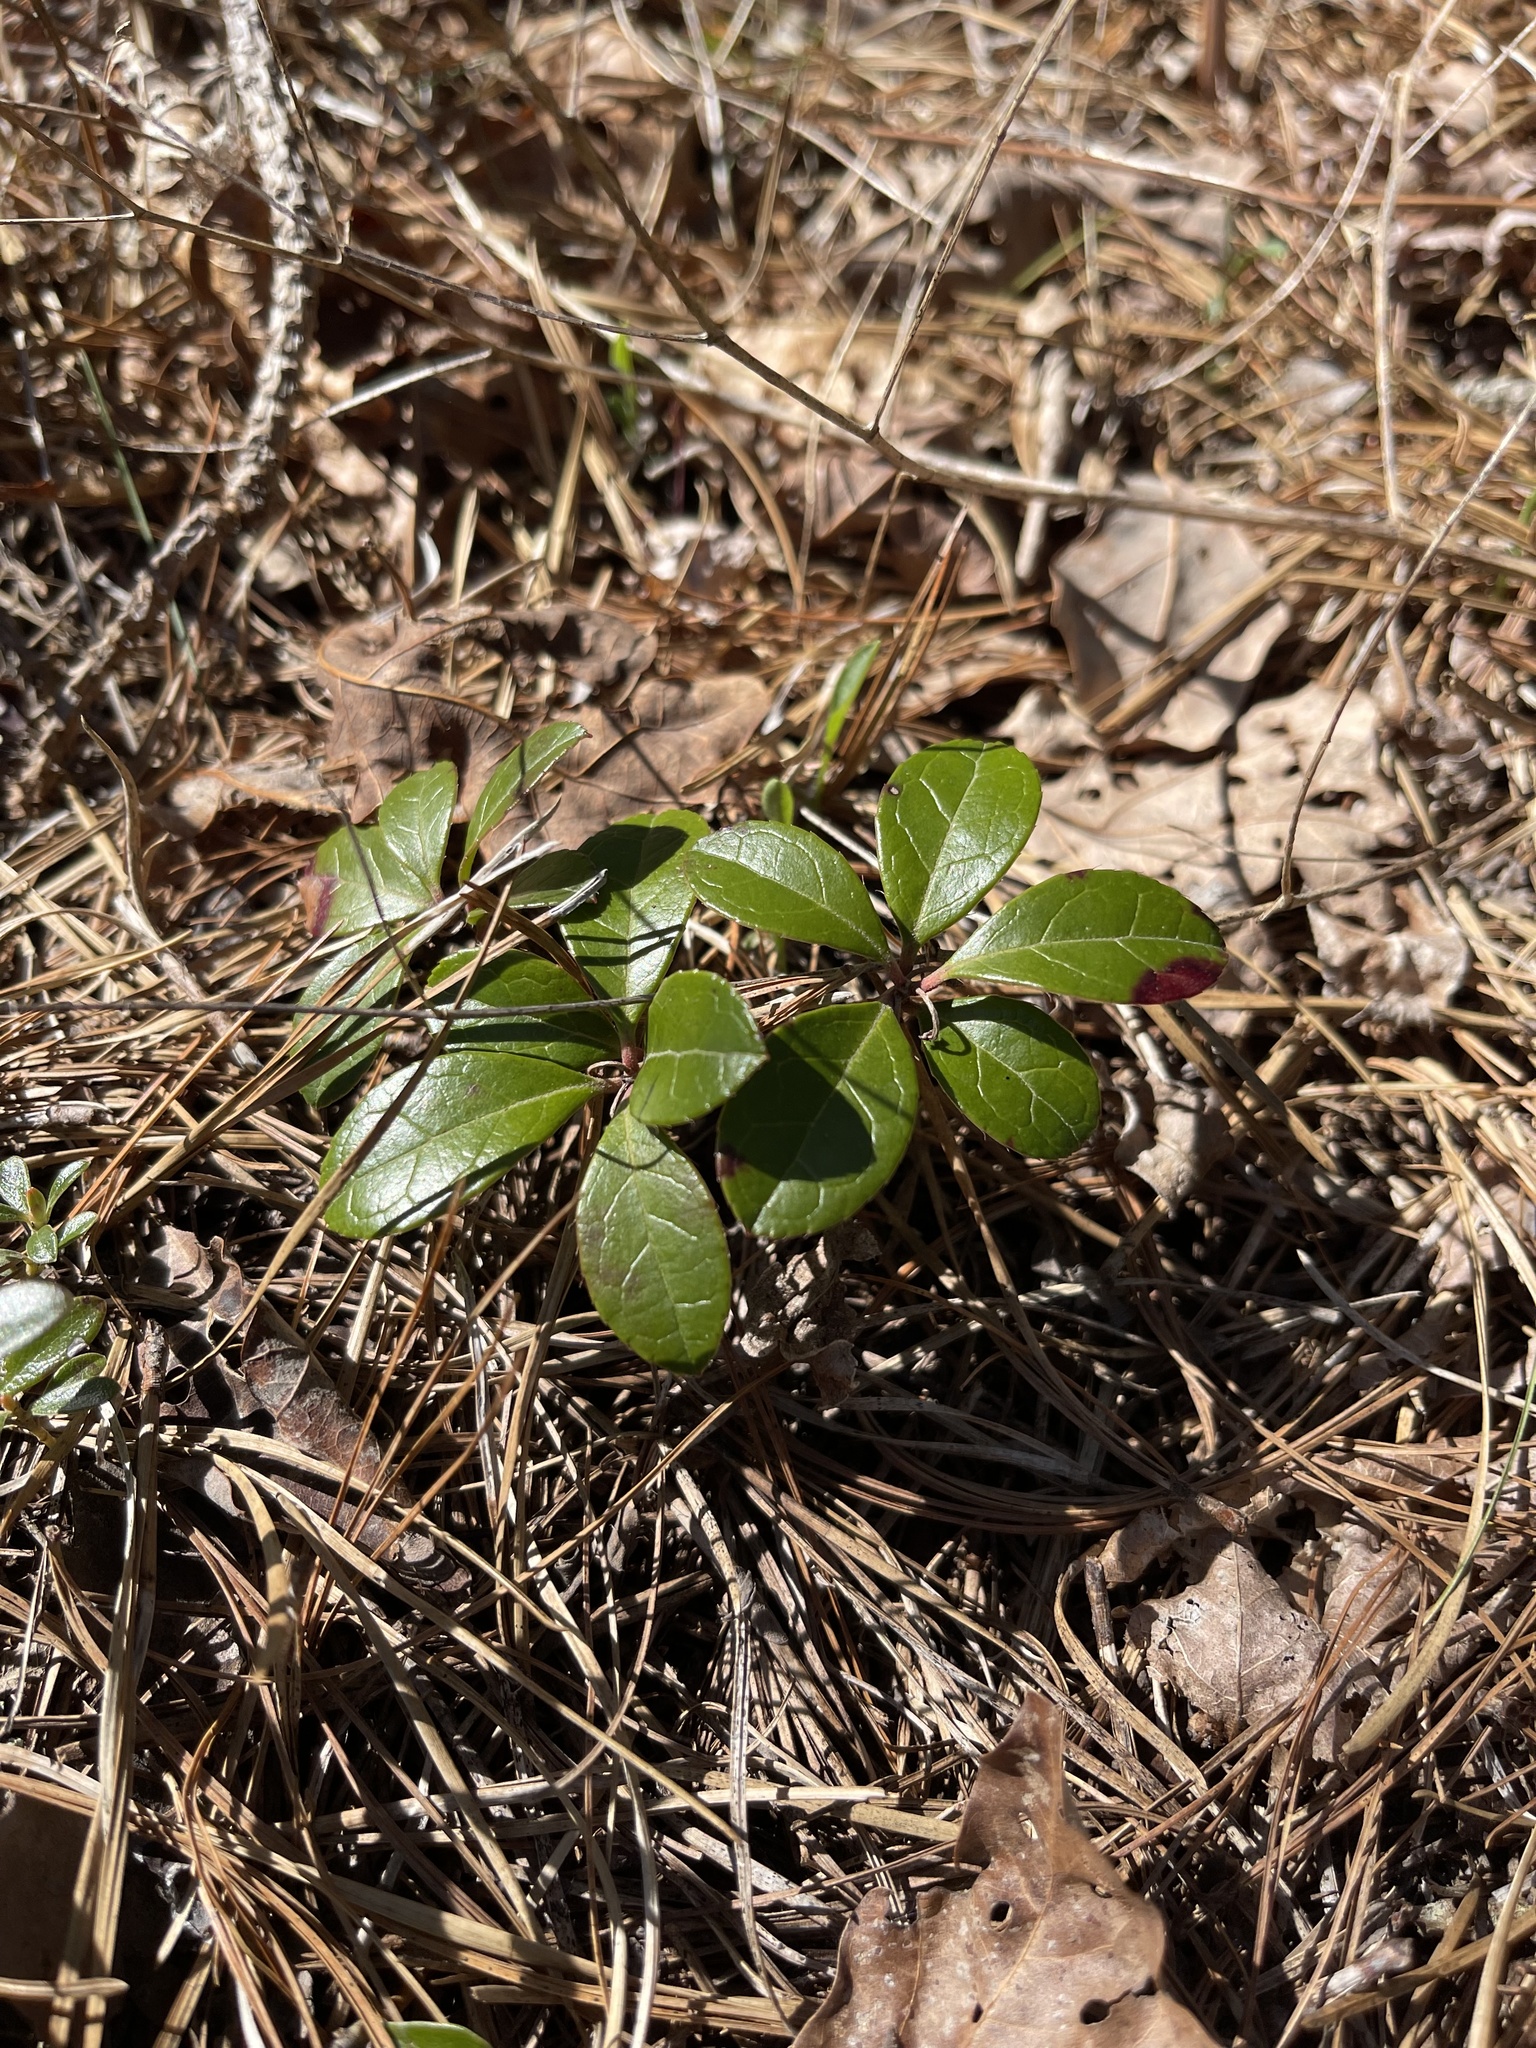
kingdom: Plantae
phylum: Tracheophyta
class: Magnoliopsida
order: Ericales
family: Ericaceae
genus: Gaultheria
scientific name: Gaultheria procumbens
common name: Checkerberry
